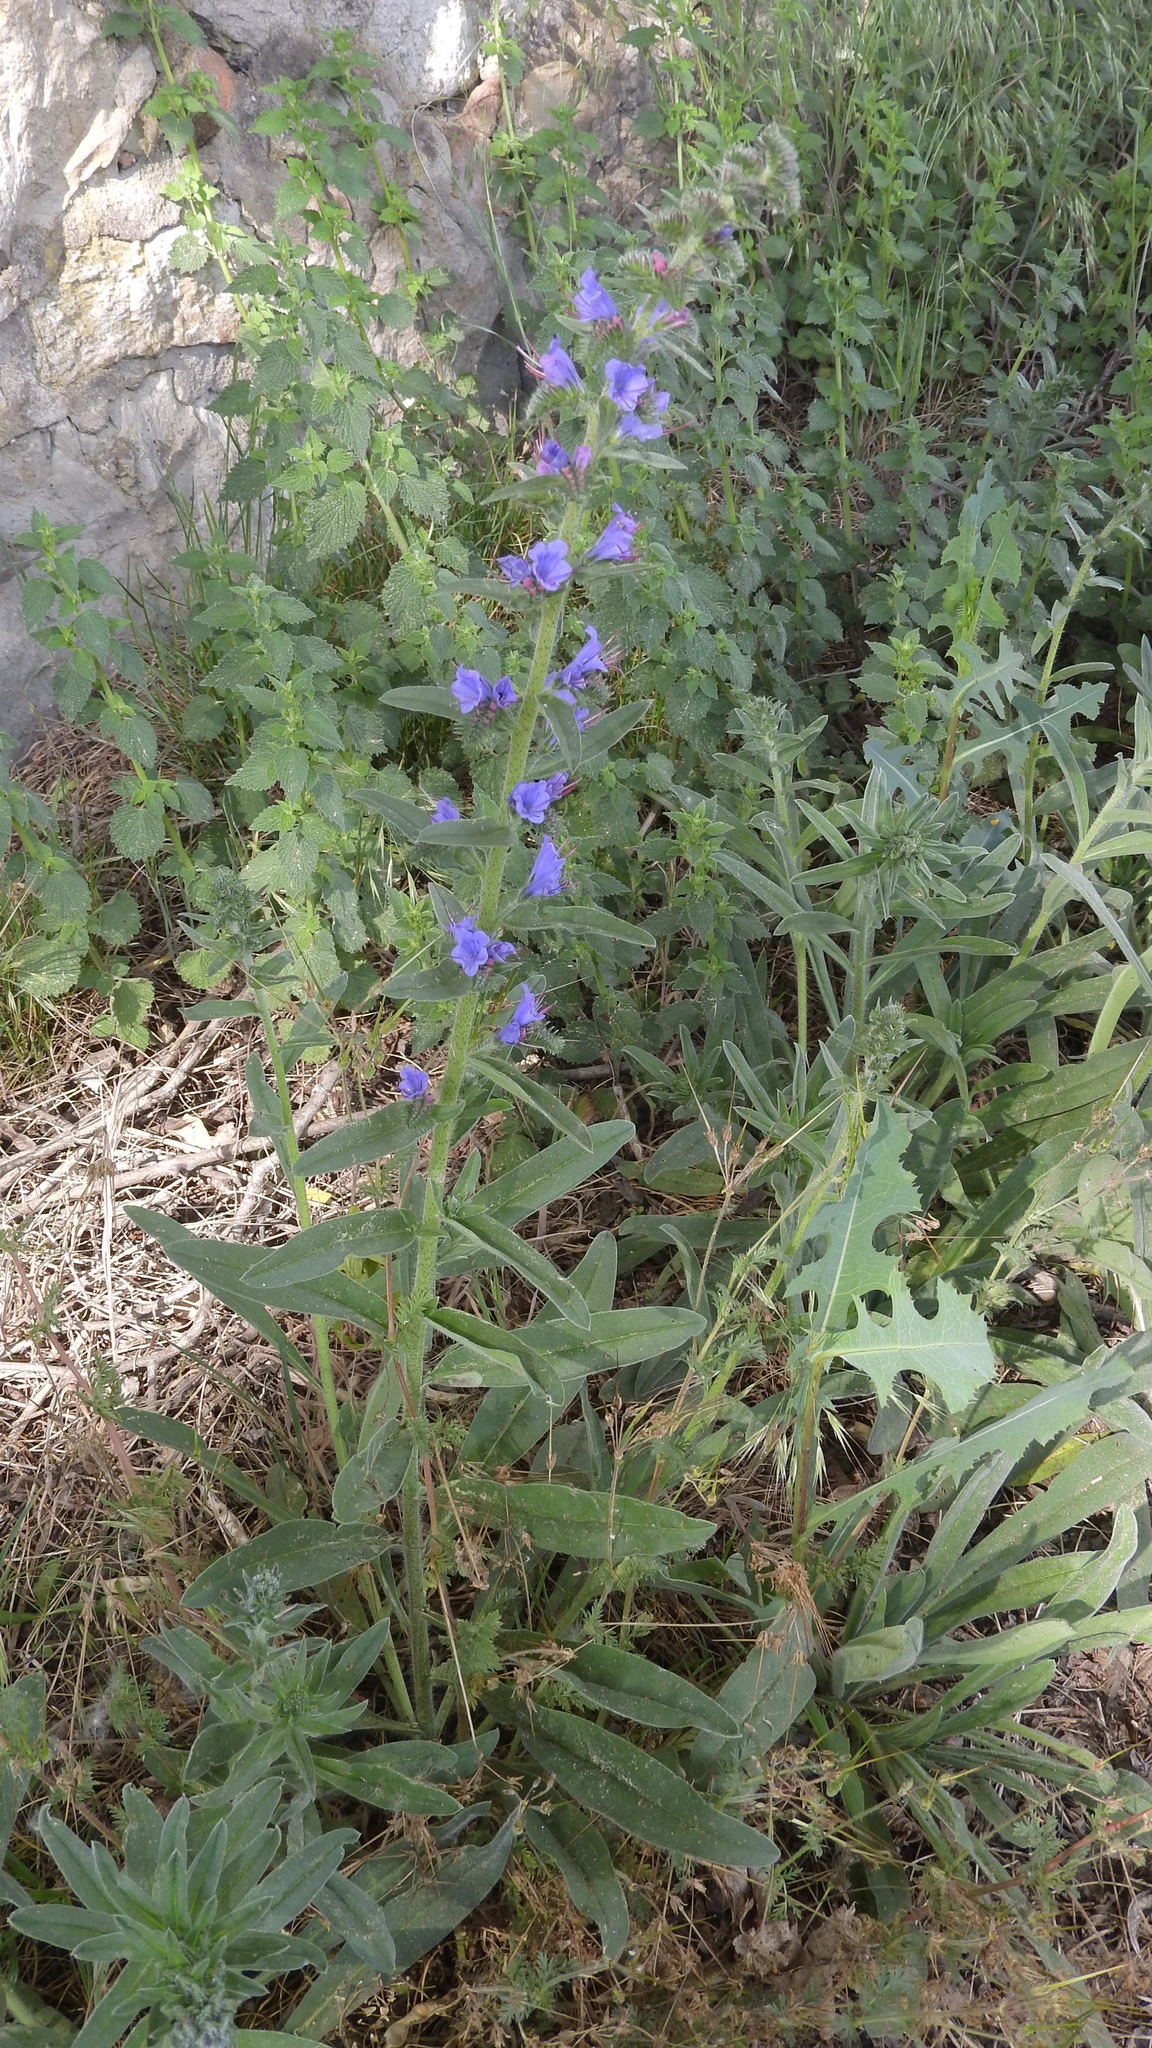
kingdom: Plantae
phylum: Tracheophyta
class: Magnoliopsida
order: Boraginales
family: Boraginaceae
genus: Echium
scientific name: Echium vulgare
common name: Common viper's bugloss
